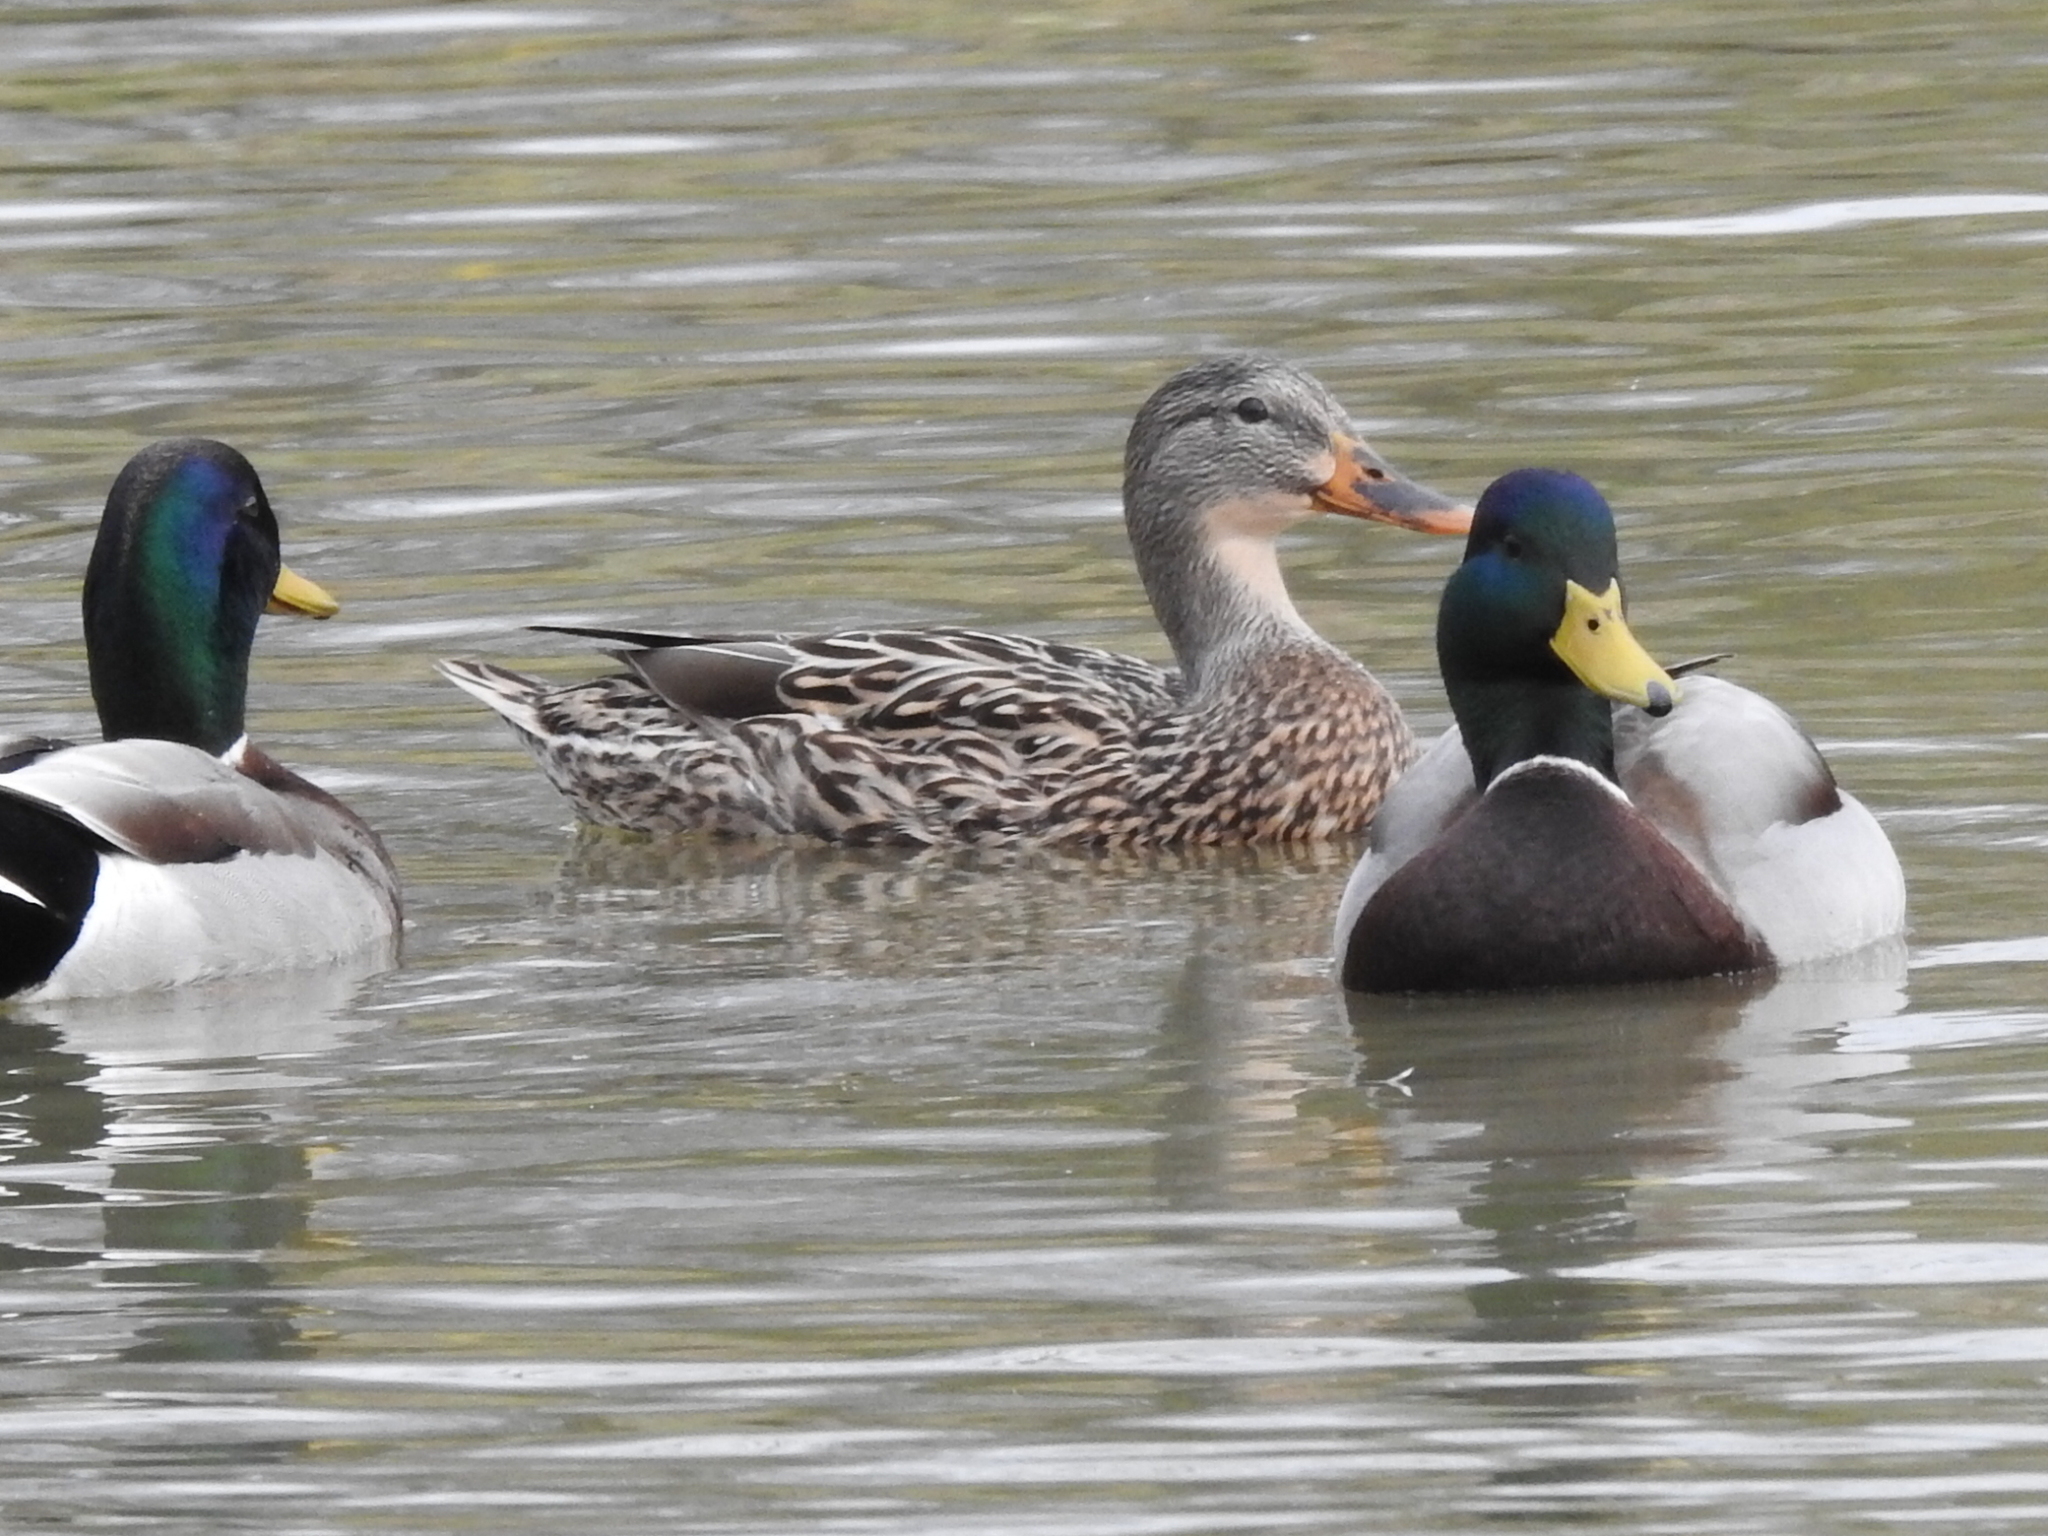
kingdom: Animalia
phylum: Chordata
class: Aves
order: Anseriformes
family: Anatidae
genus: Anas
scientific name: Anas platyrhynchos
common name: Mallard
